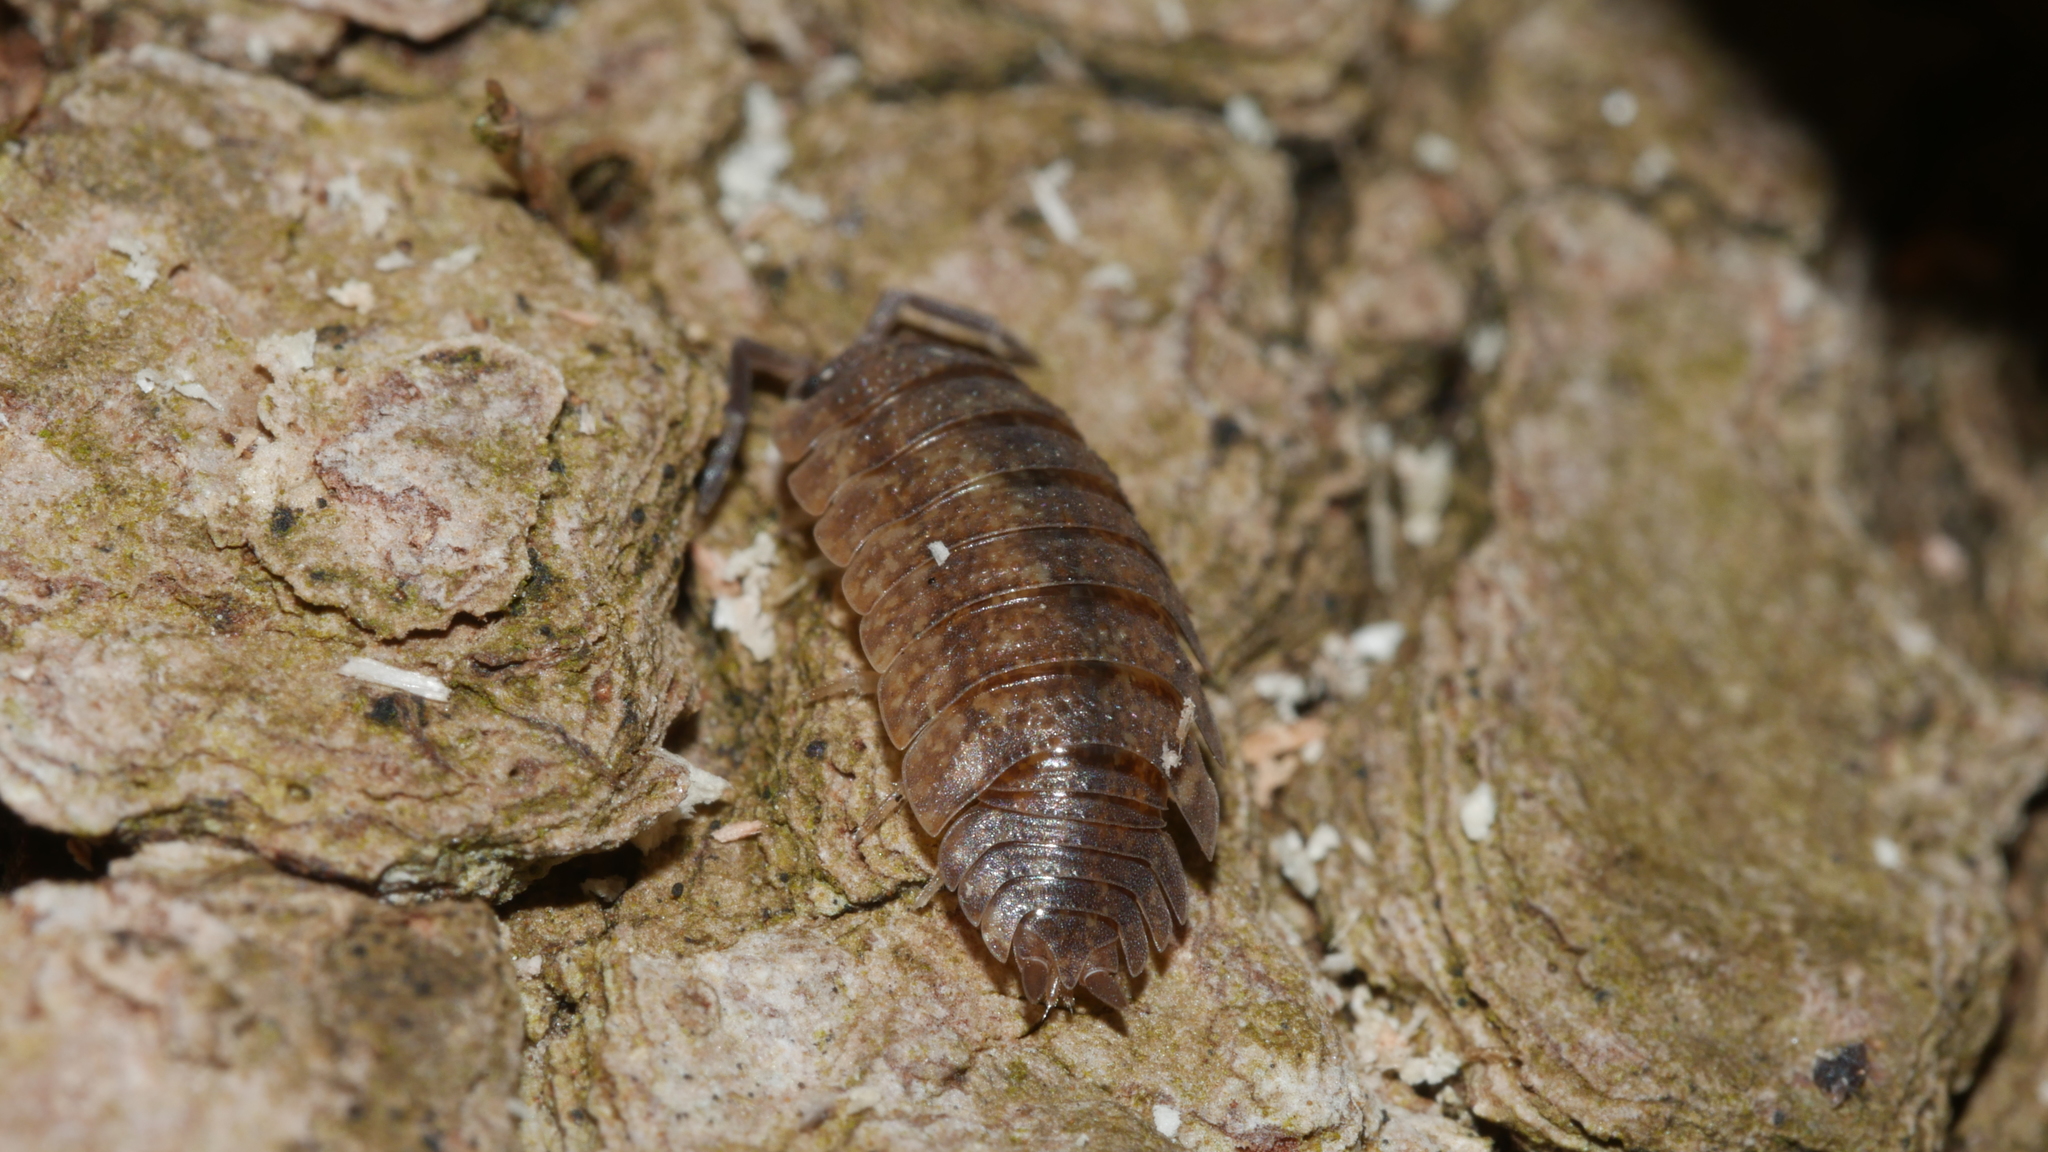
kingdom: Animalia
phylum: Arthropoda
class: Malacostraca
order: Isopoda
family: Porcellionidae
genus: Porcellio
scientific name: Porcellio scaber
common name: Common rough woodlouse
